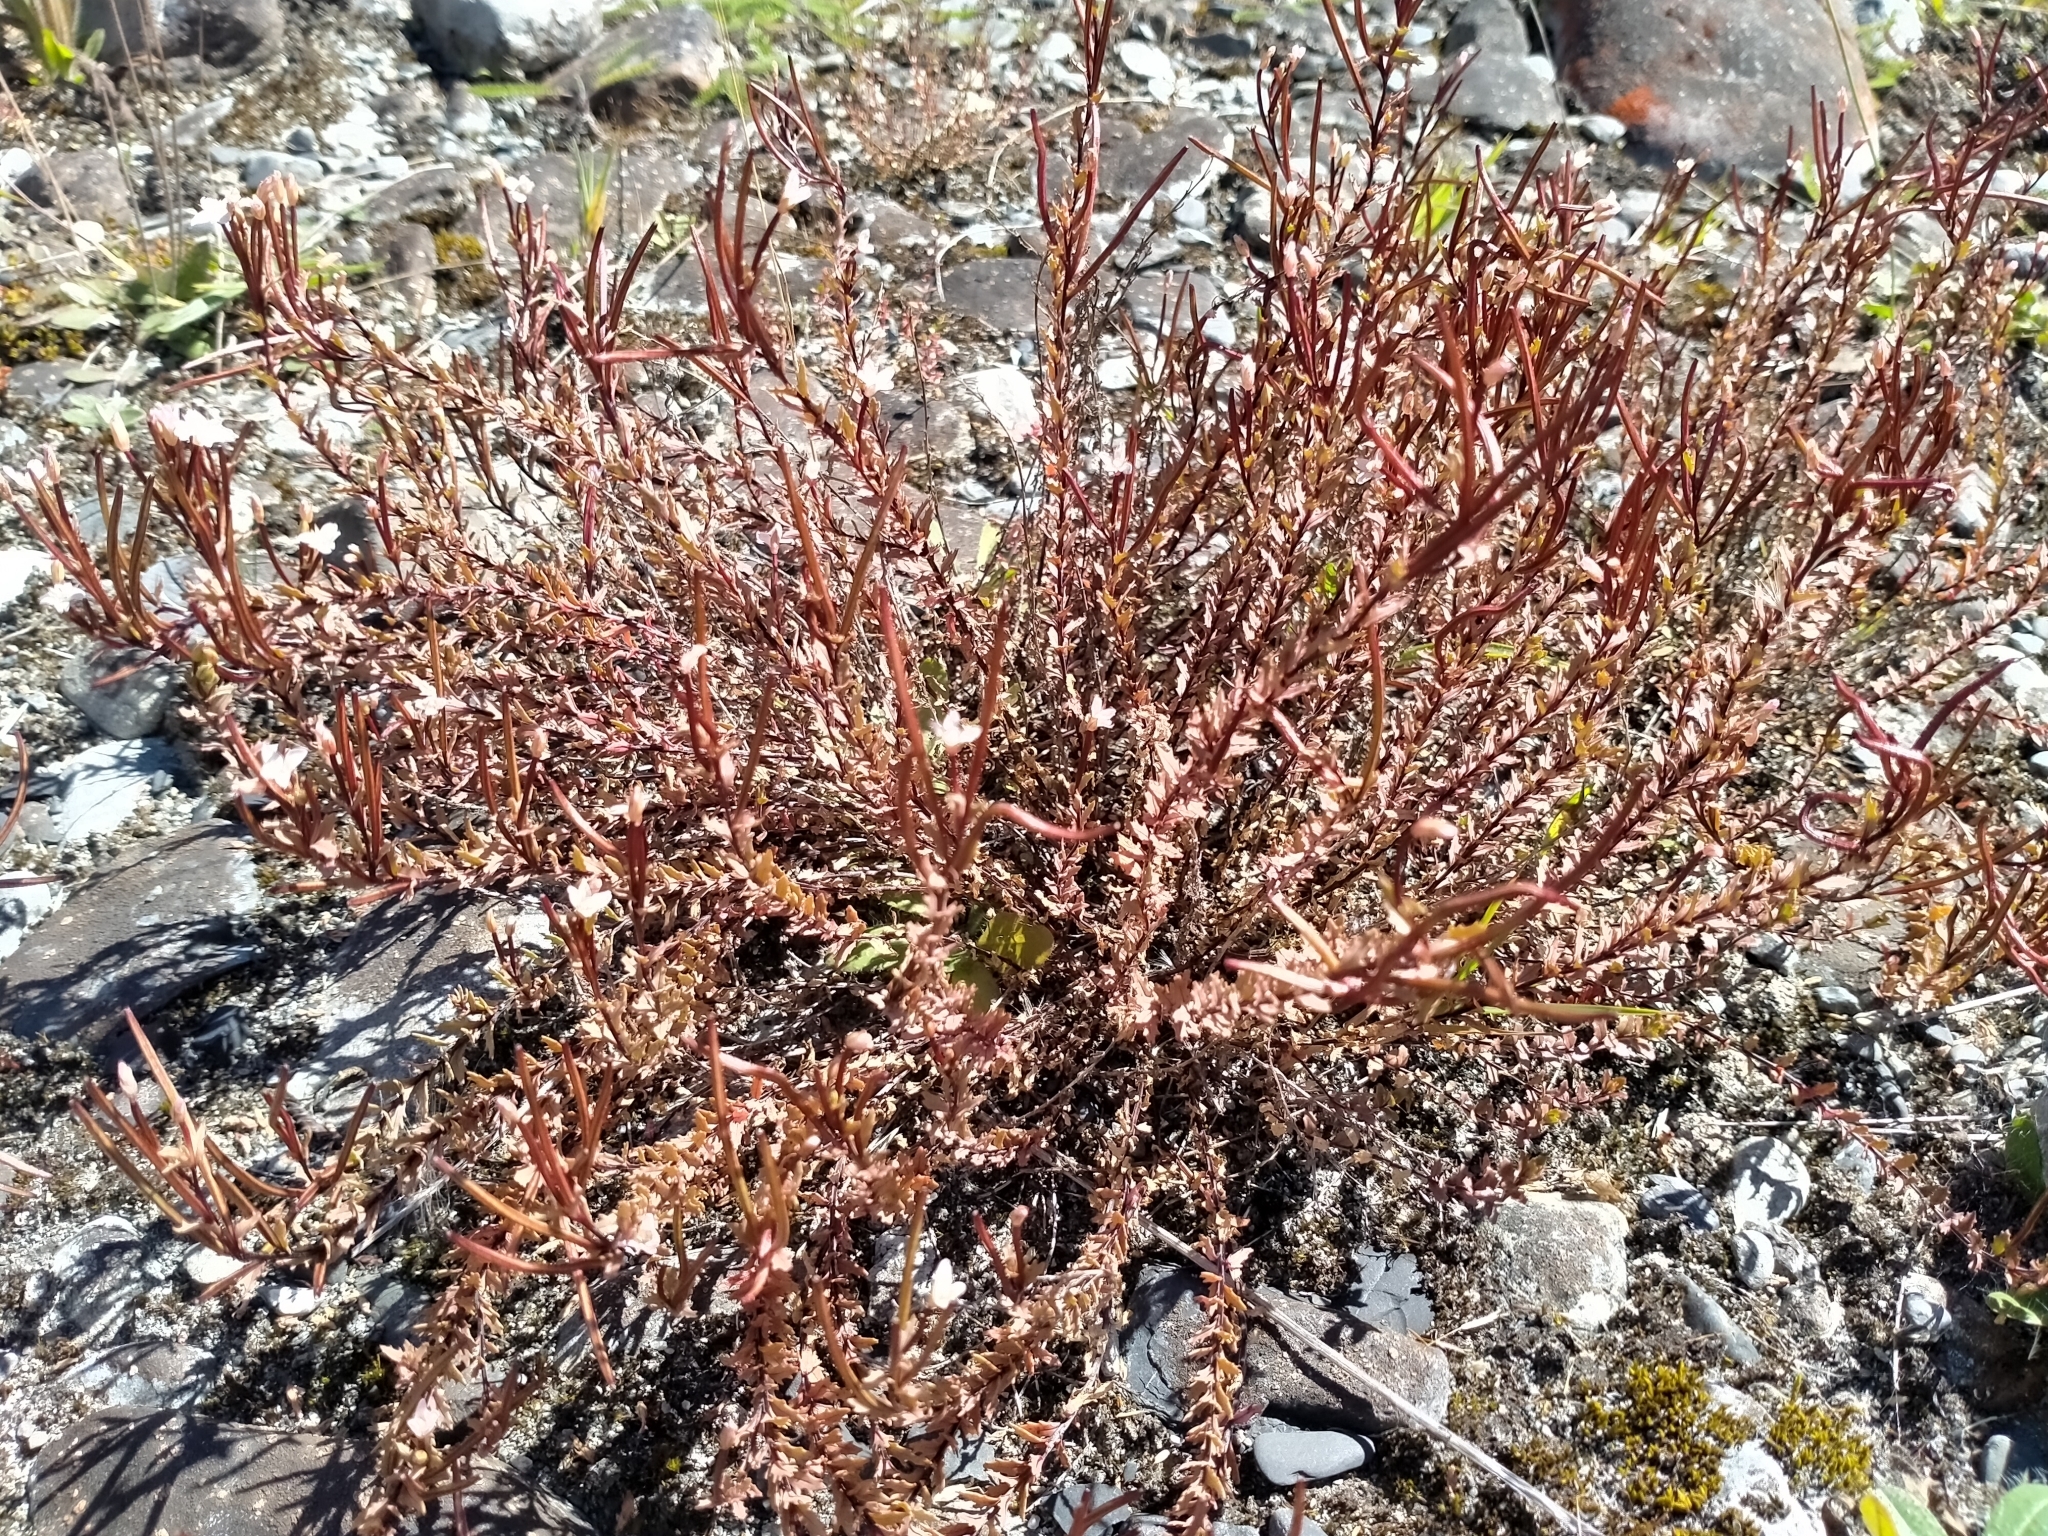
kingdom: Plantae
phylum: Tracheophyta
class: Magnoliopsida
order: Myrtales
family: Onagraceae
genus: Epilobium
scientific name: Epilobium melanocaulon
